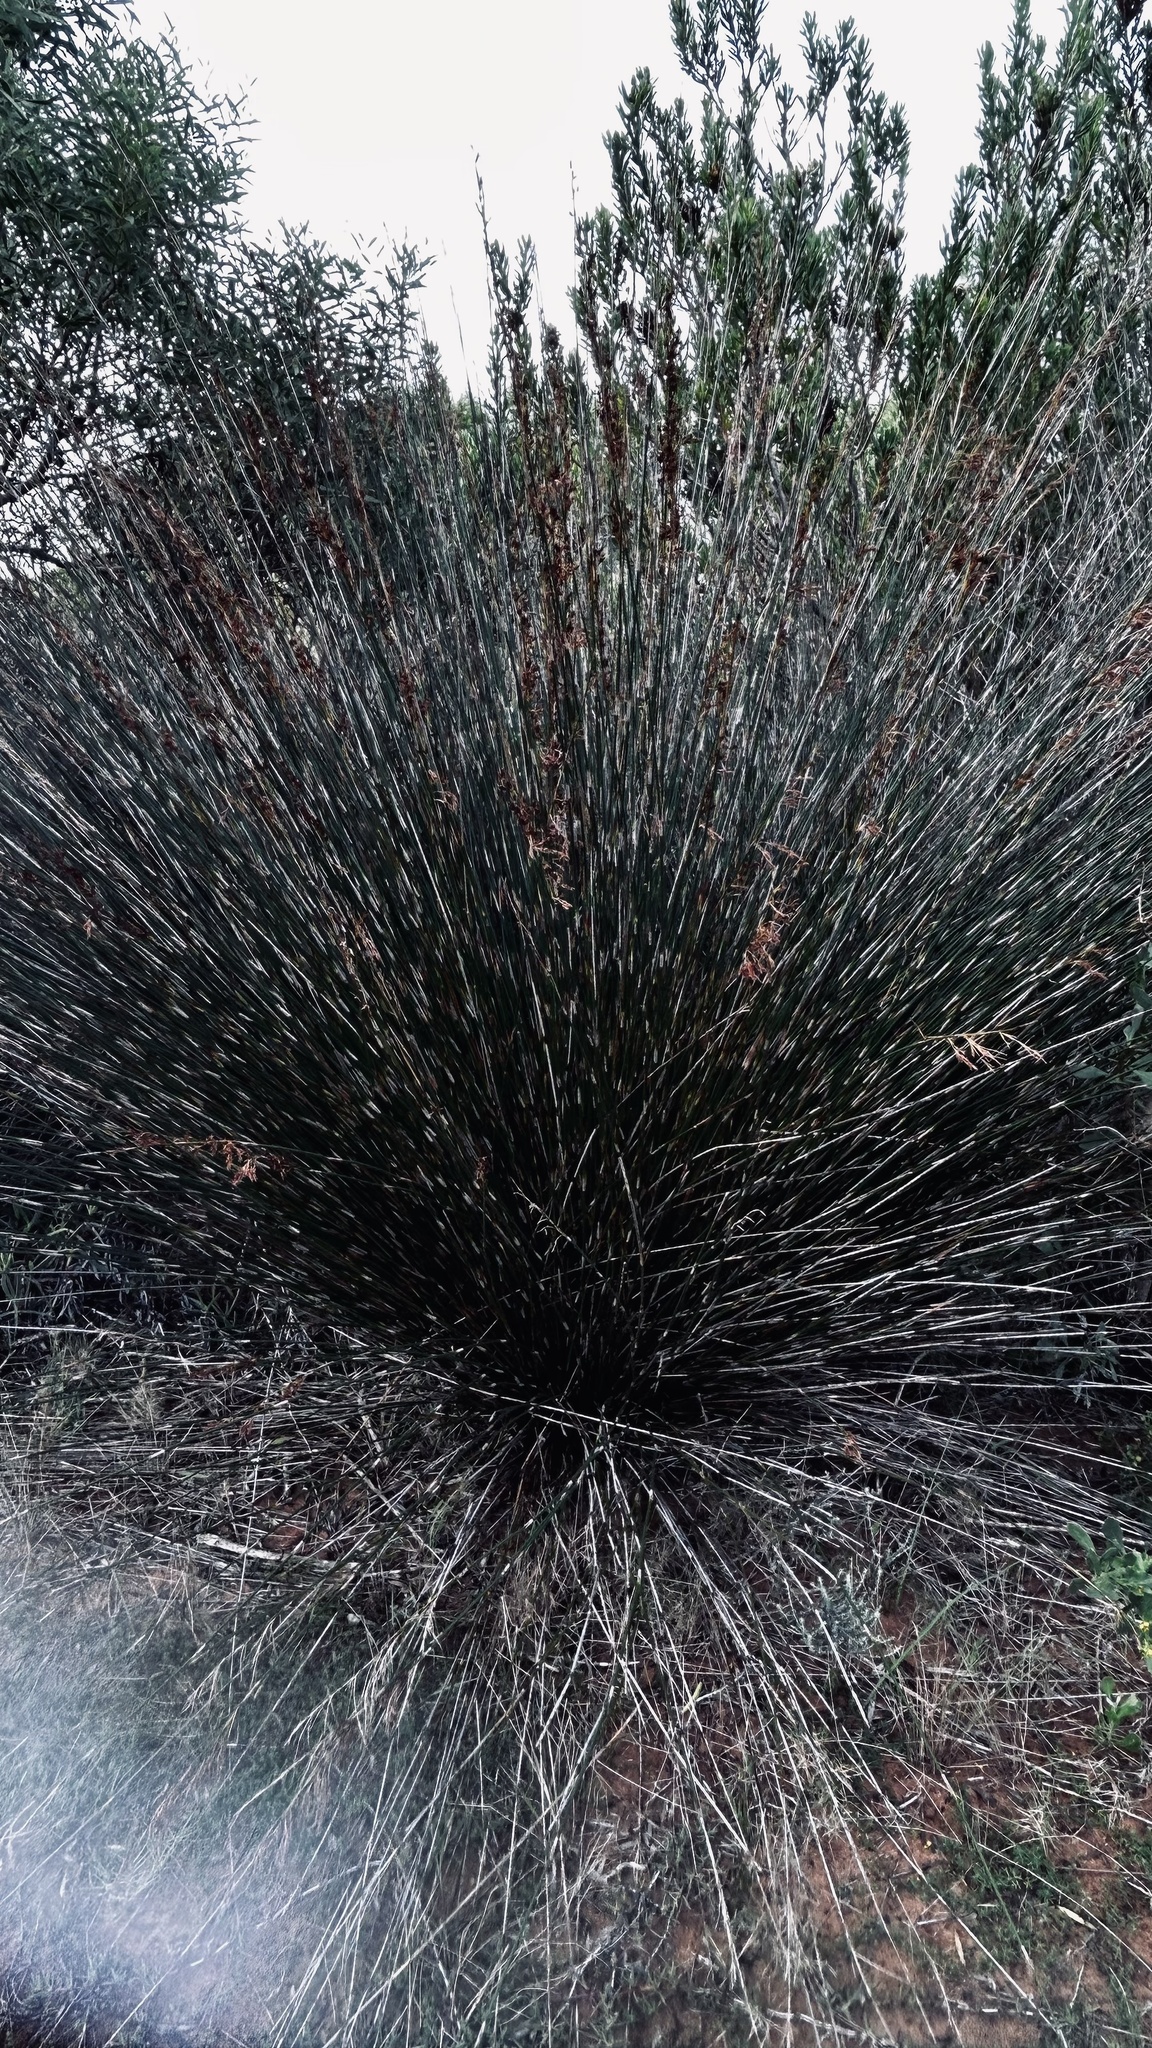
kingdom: Plantae
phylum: Tracheophyta
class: Liliopsida
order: Poales
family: Restionaceae
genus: Thamnochortus
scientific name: Thamnochortus insignis
